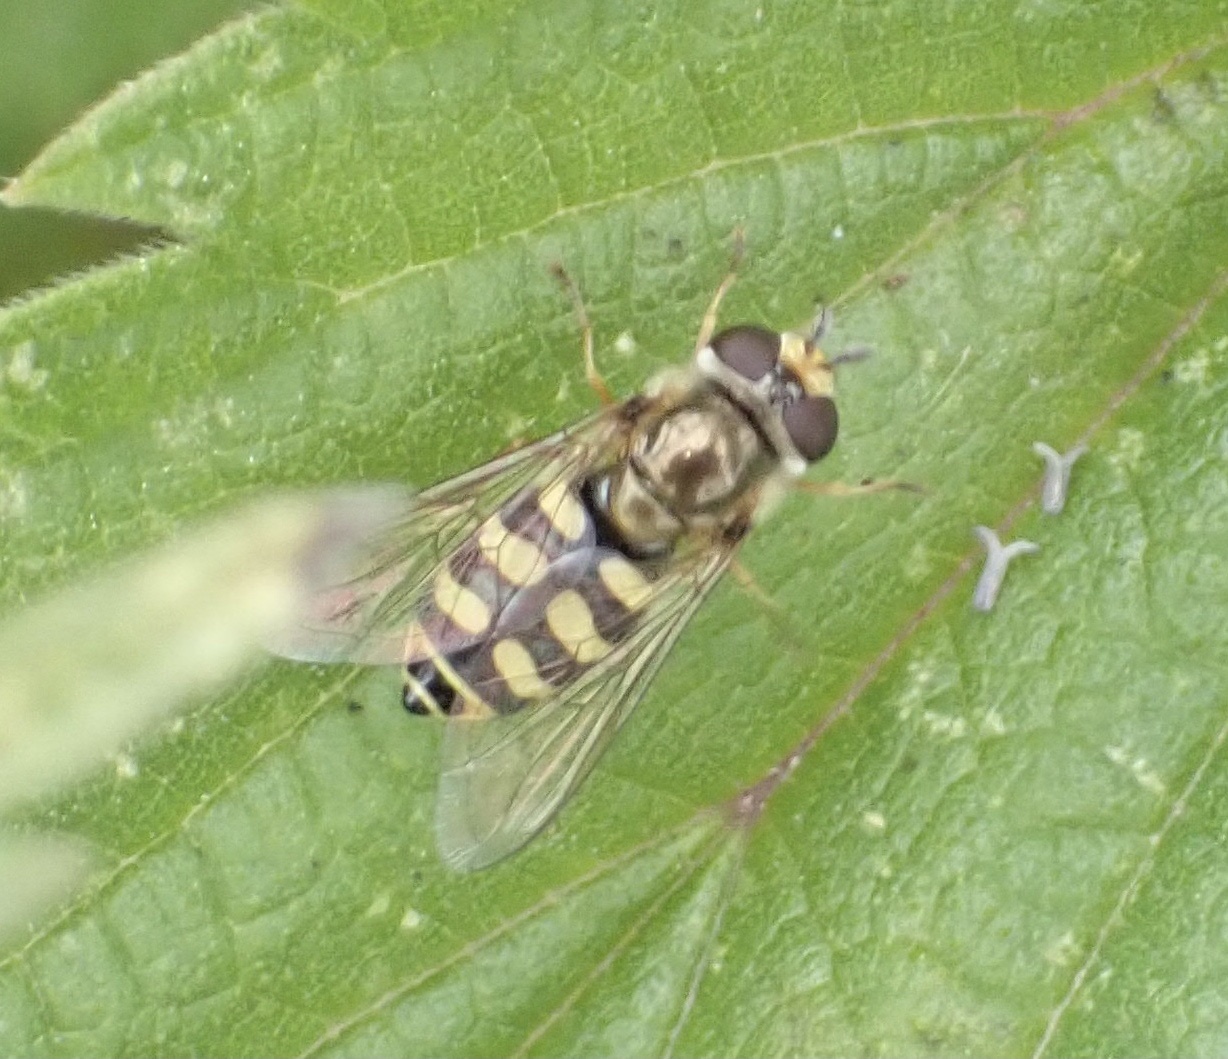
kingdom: Animalia
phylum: Arthropoda
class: Insecta
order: Diptera
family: Syrphidae
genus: Eupeodes
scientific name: Eupeodes corollae
